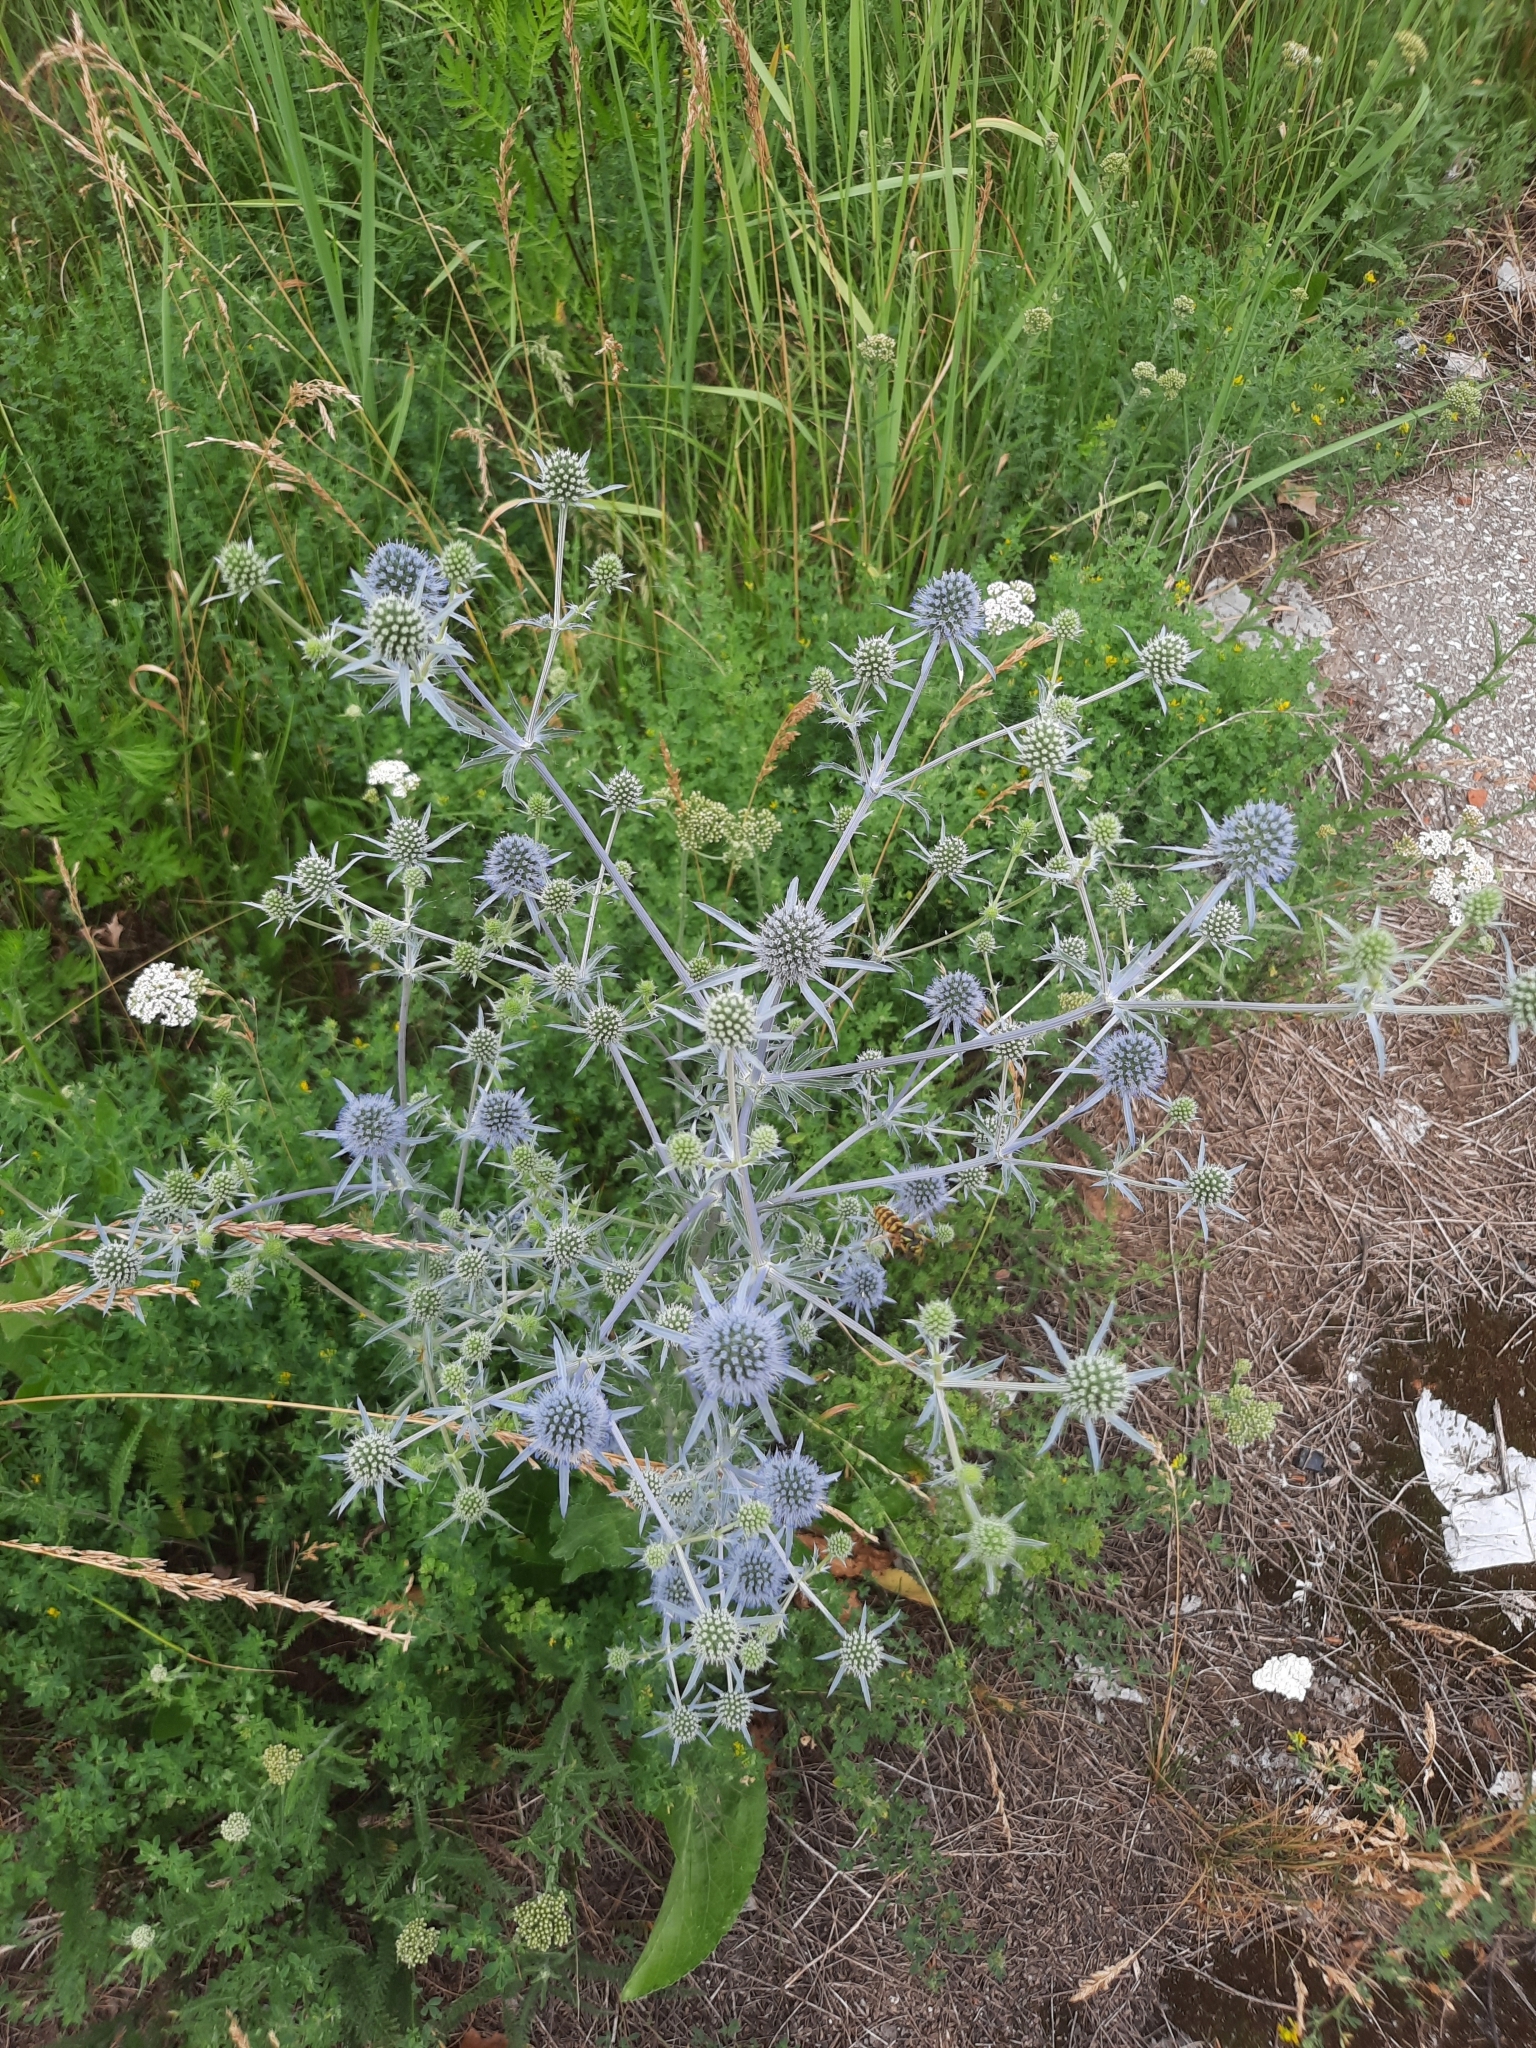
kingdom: Plantae
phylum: Tracheophyta
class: Magnoliopsida
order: Apiales
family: Apiaceae
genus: Eryngium
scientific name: Eryngium planum
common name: Blue eryngo
